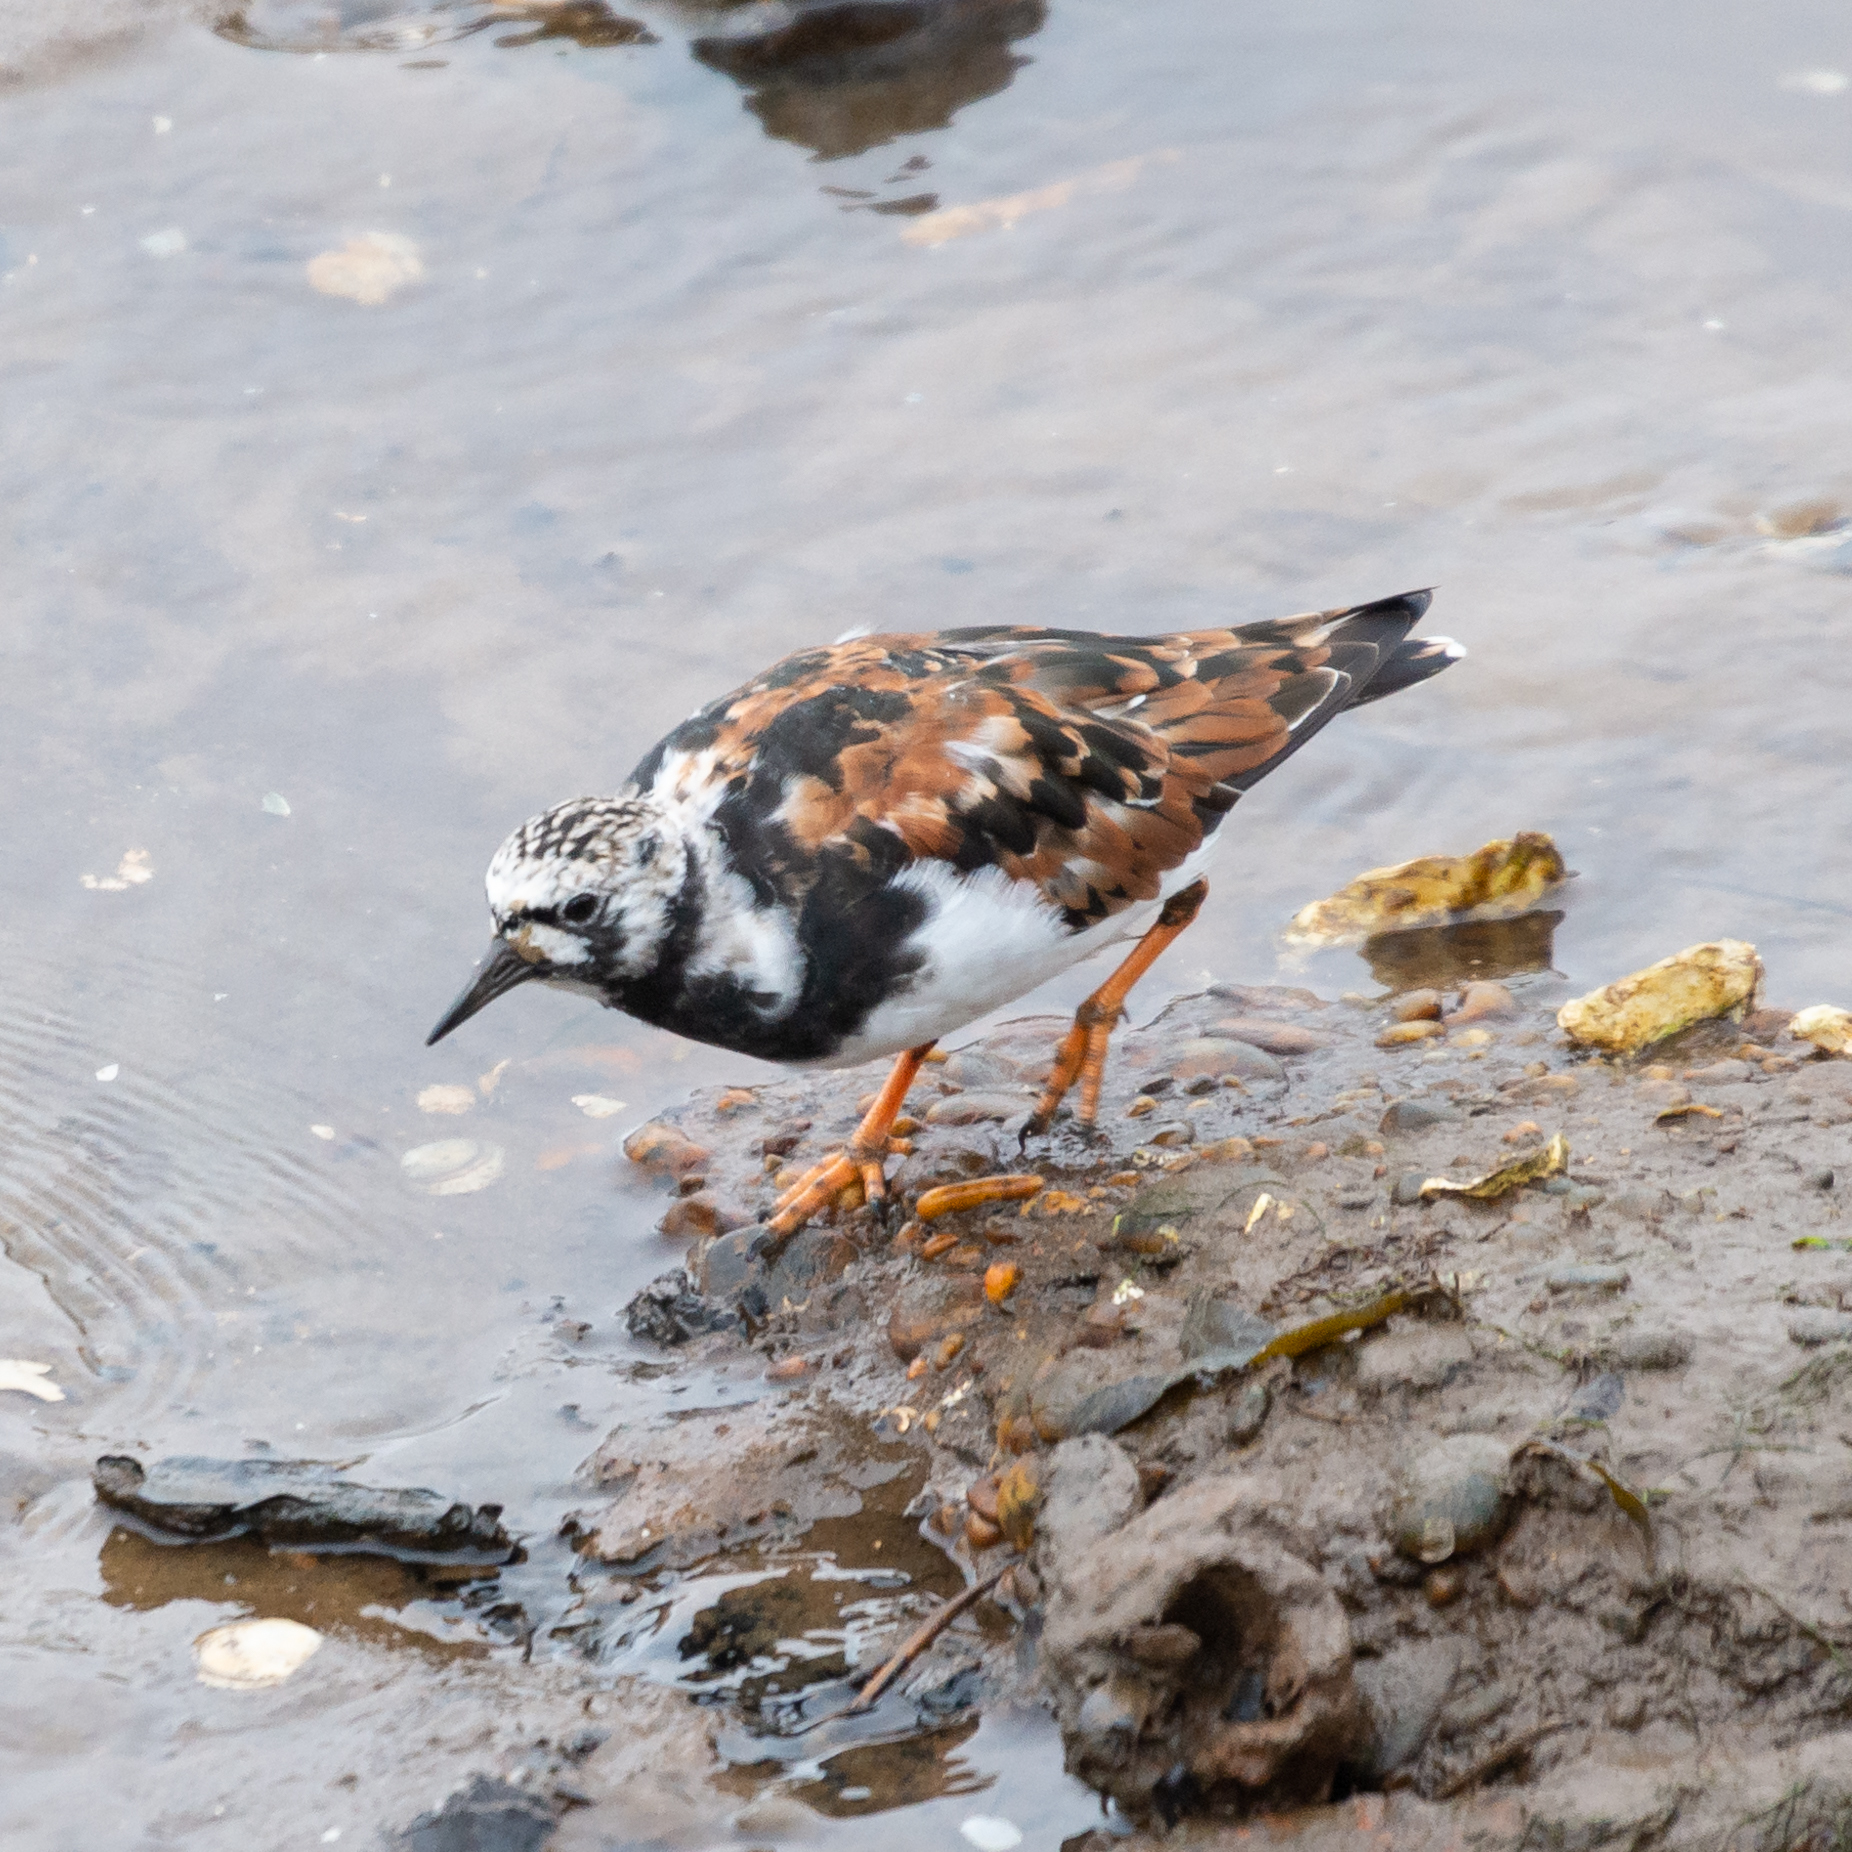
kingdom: Animalia
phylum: Chordata
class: Aves
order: Charadriiformes
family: Scolopacidae
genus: Arenaria
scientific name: Arenaria interpres
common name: Ruddy turnstone
